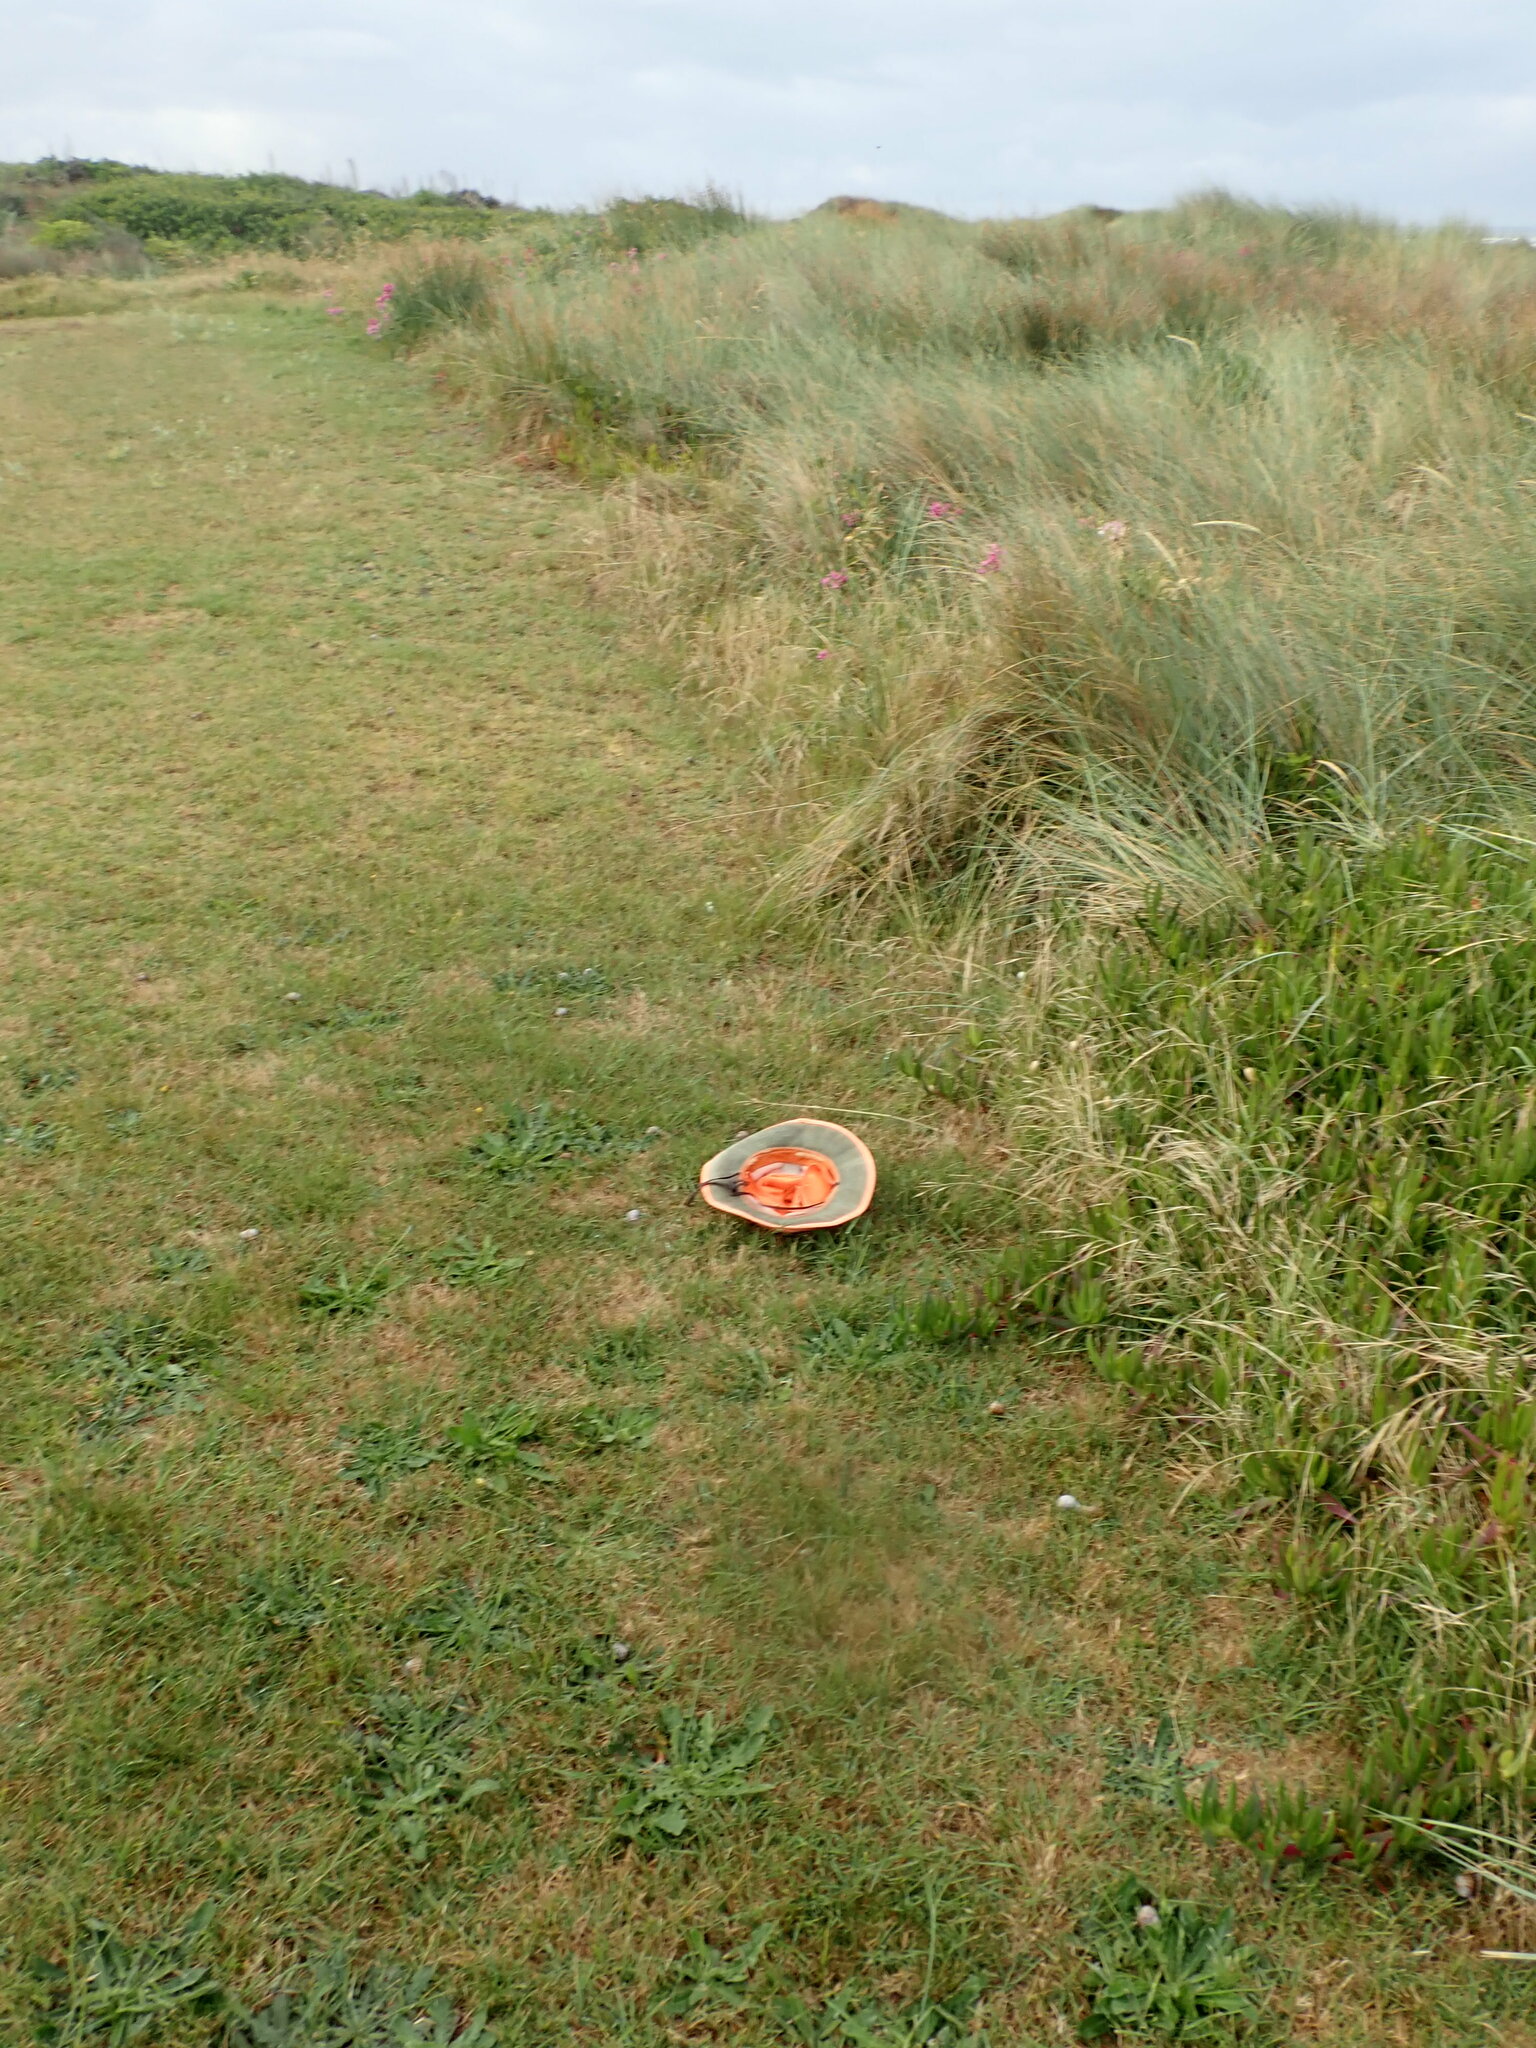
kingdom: Animalia
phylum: Mollusca
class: Gastropoda
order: Stylommatophora
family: Helicidae
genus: Cornu
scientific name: Cornu aspersum
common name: Brown garden snail
